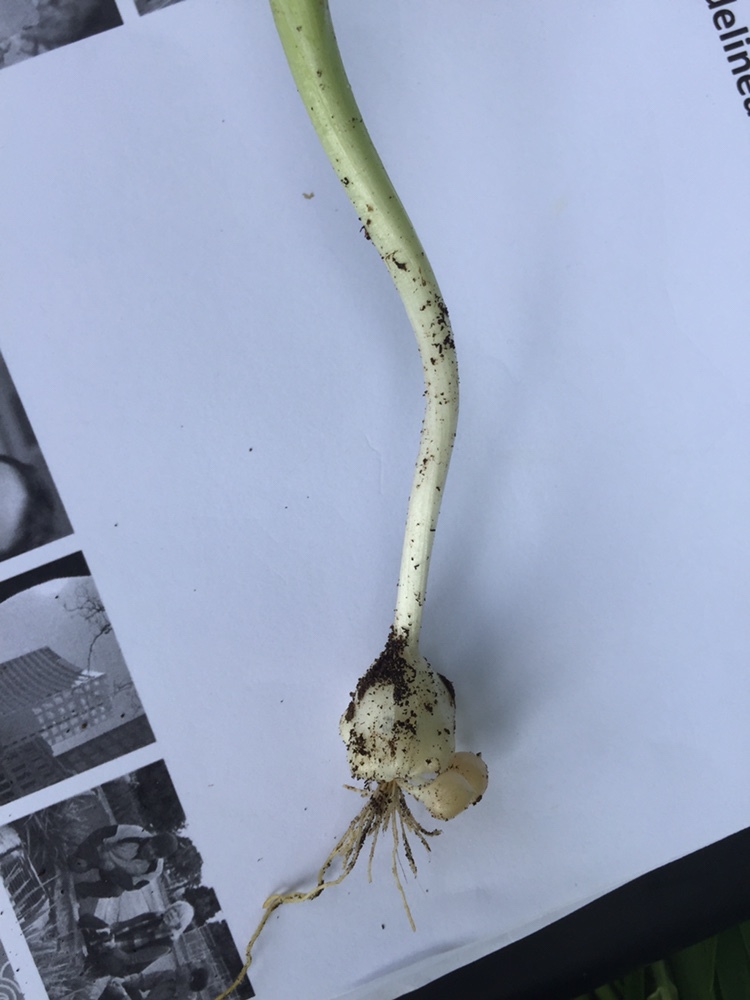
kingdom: Plantae
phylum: Tracheophyta
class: Liliopsida
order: Asparagales
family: Amaryllidaceae
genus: Allium
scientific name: Allium roseum
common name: Rosy garlic
